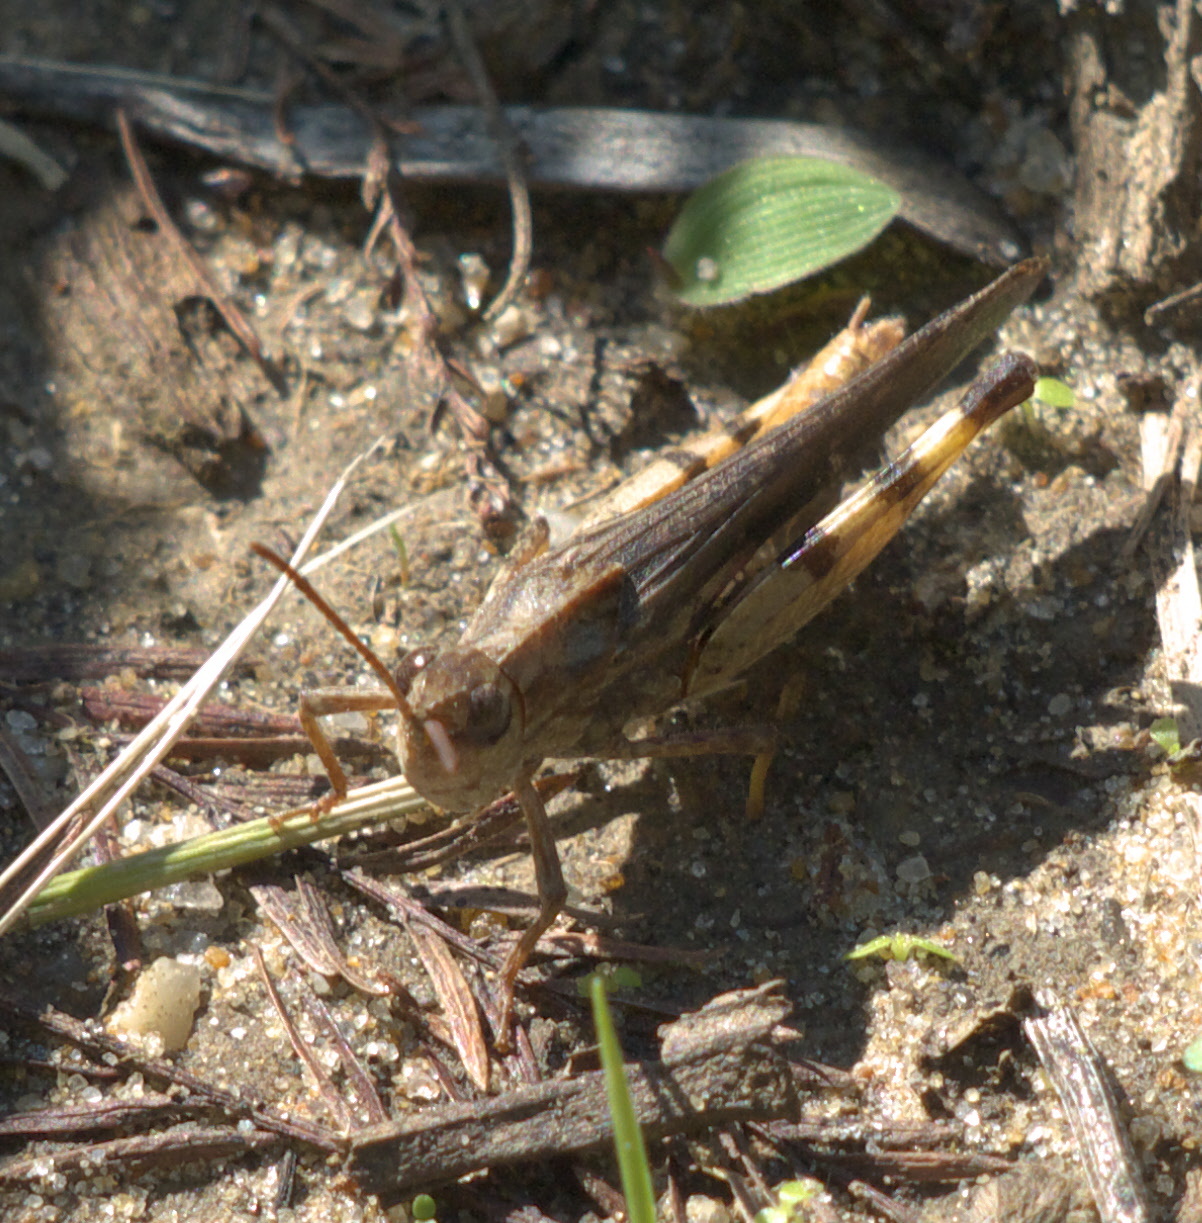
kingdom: Animalia
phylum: Arthropoda
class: Insecta
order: Orthoptera
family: Acrididae
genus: Chortophaga
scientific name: Chortophaga viridifasciata
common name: Green-striped grasshopper
